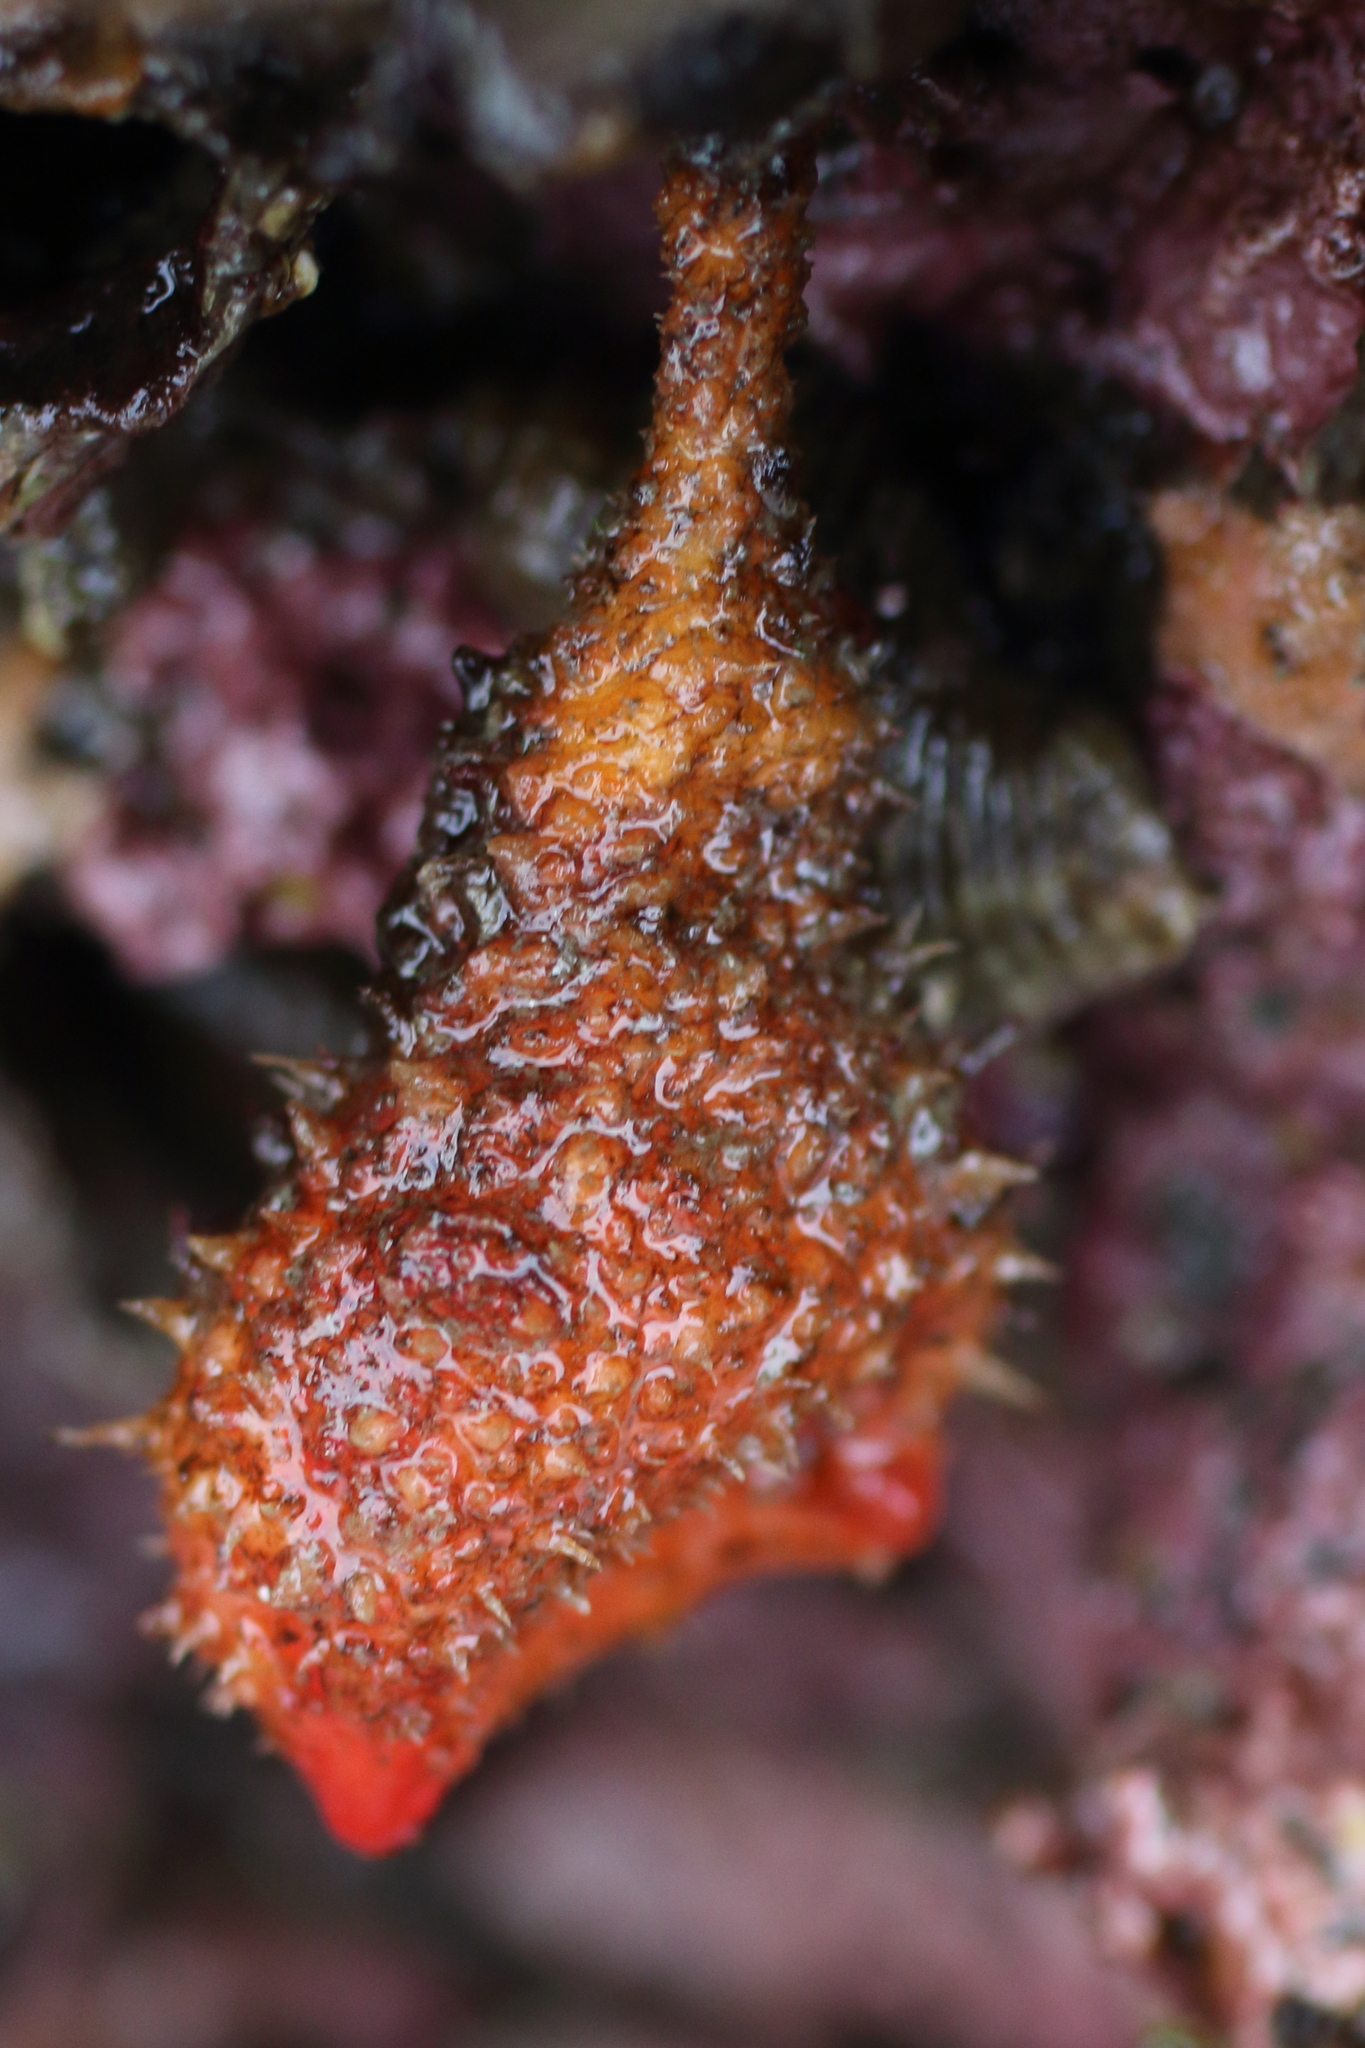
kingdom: Animalia
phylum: Chordata
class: Ascidiacea
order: Stolidobranchia
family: Pyuridae
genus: Boltenia
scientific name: Boltenia villosa
